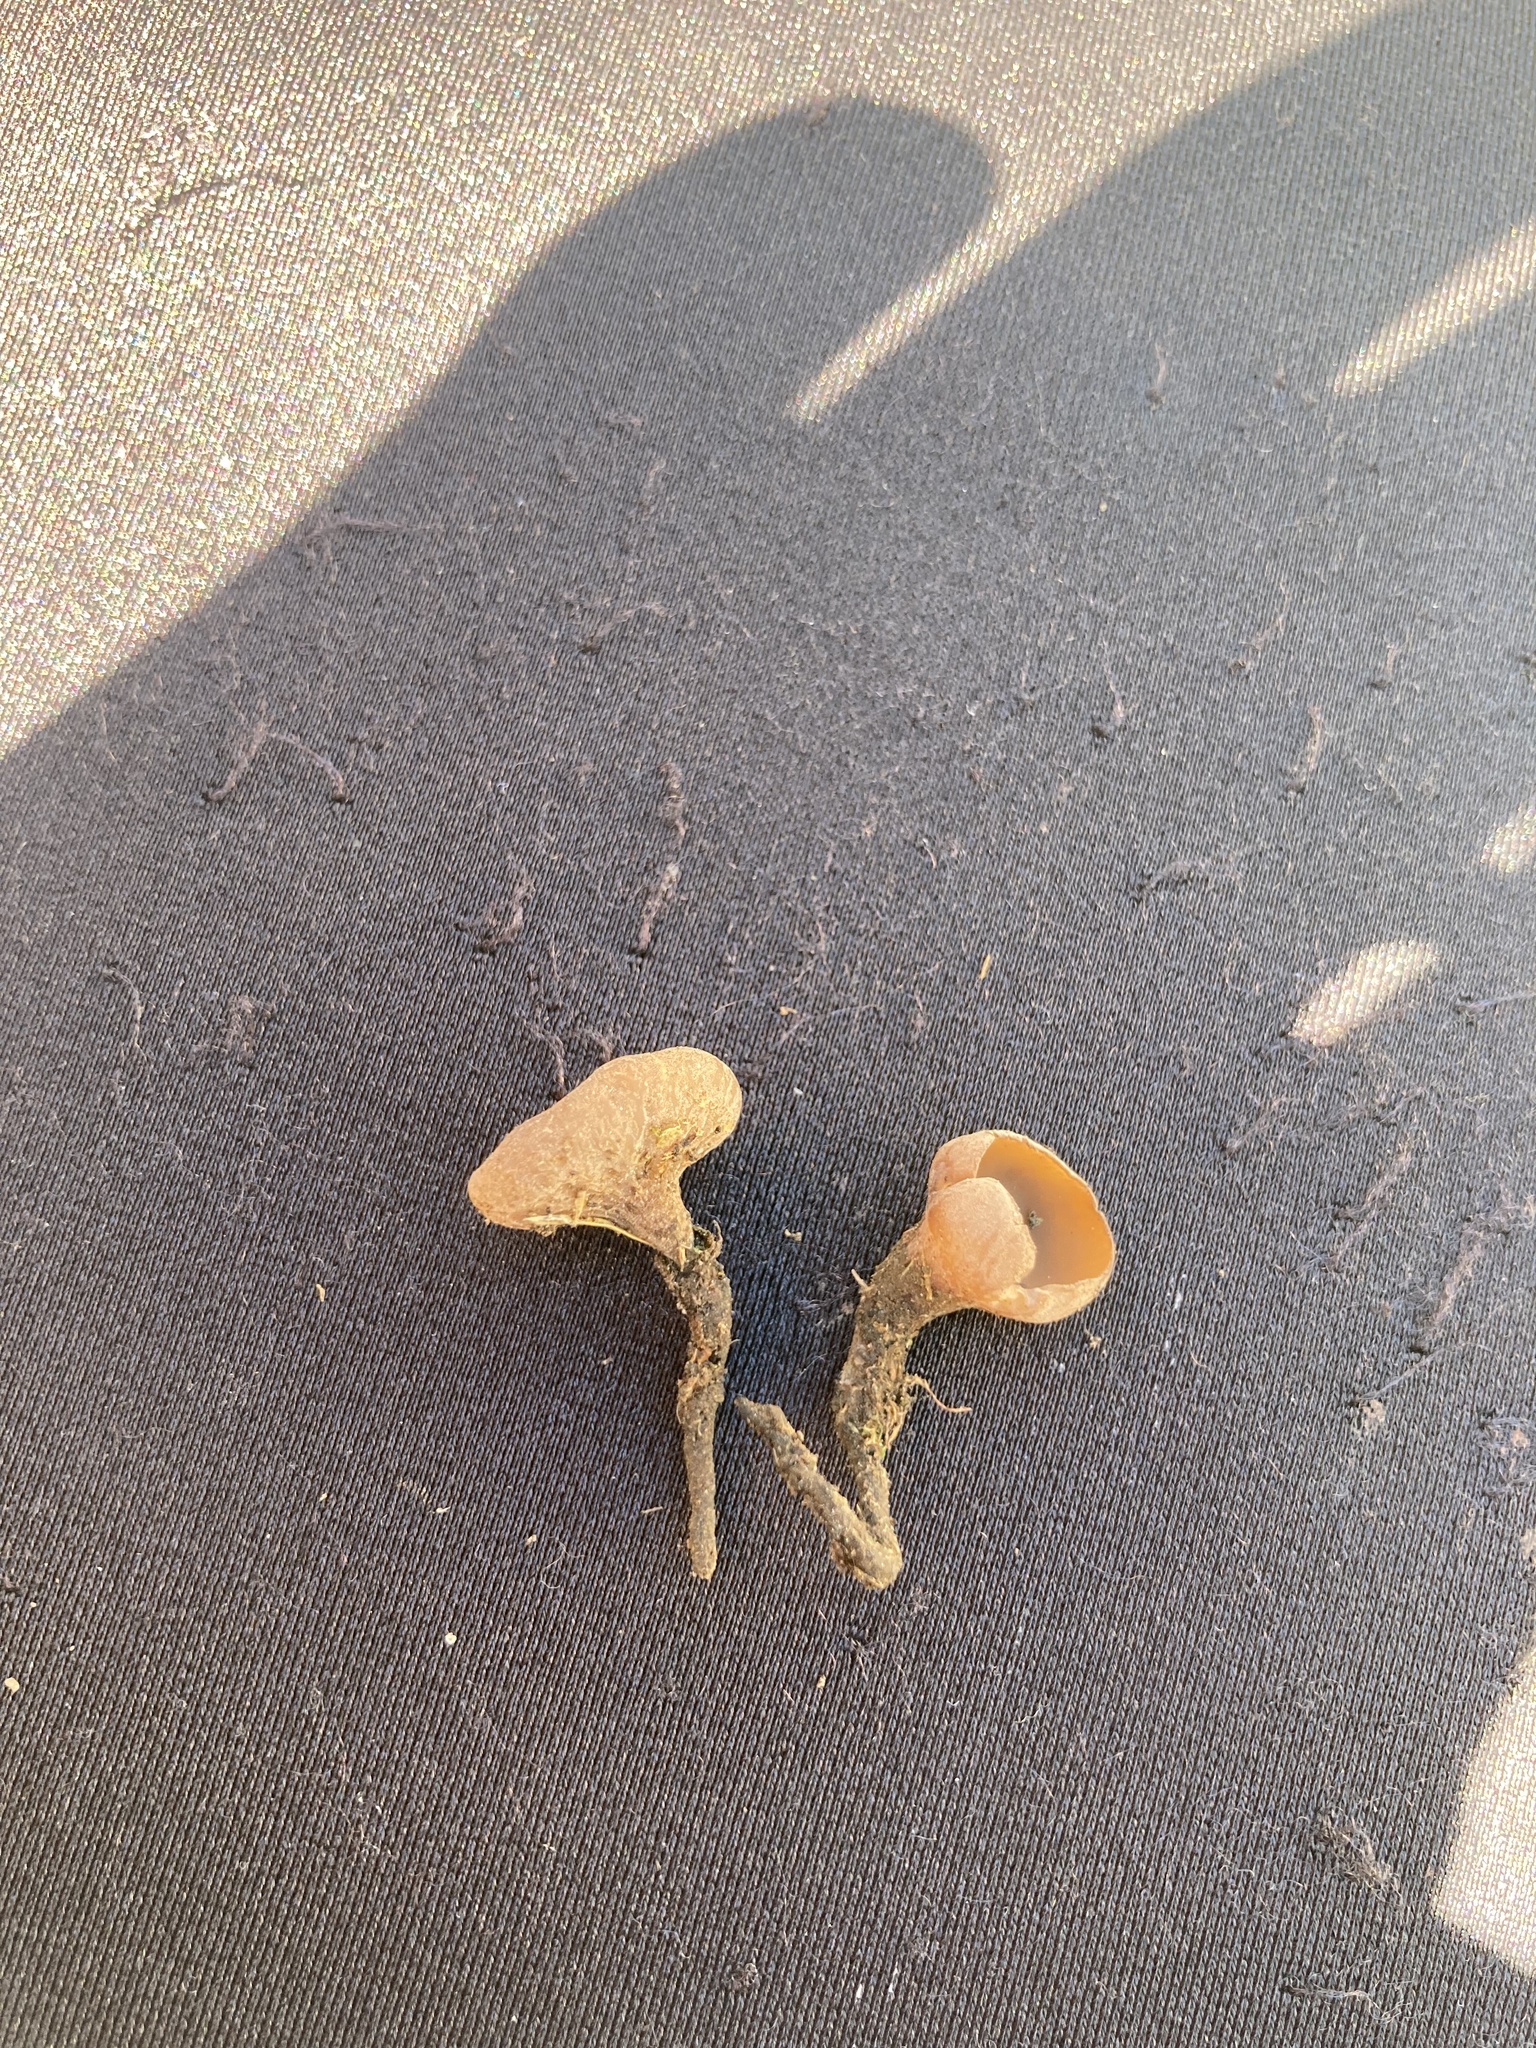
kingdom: Fungi
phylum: Ascomycota
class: Leotiomycetes
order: Helotiales
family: Sclerotiniaceae
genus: Ciborinia
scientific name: Ciborinia camelliae
